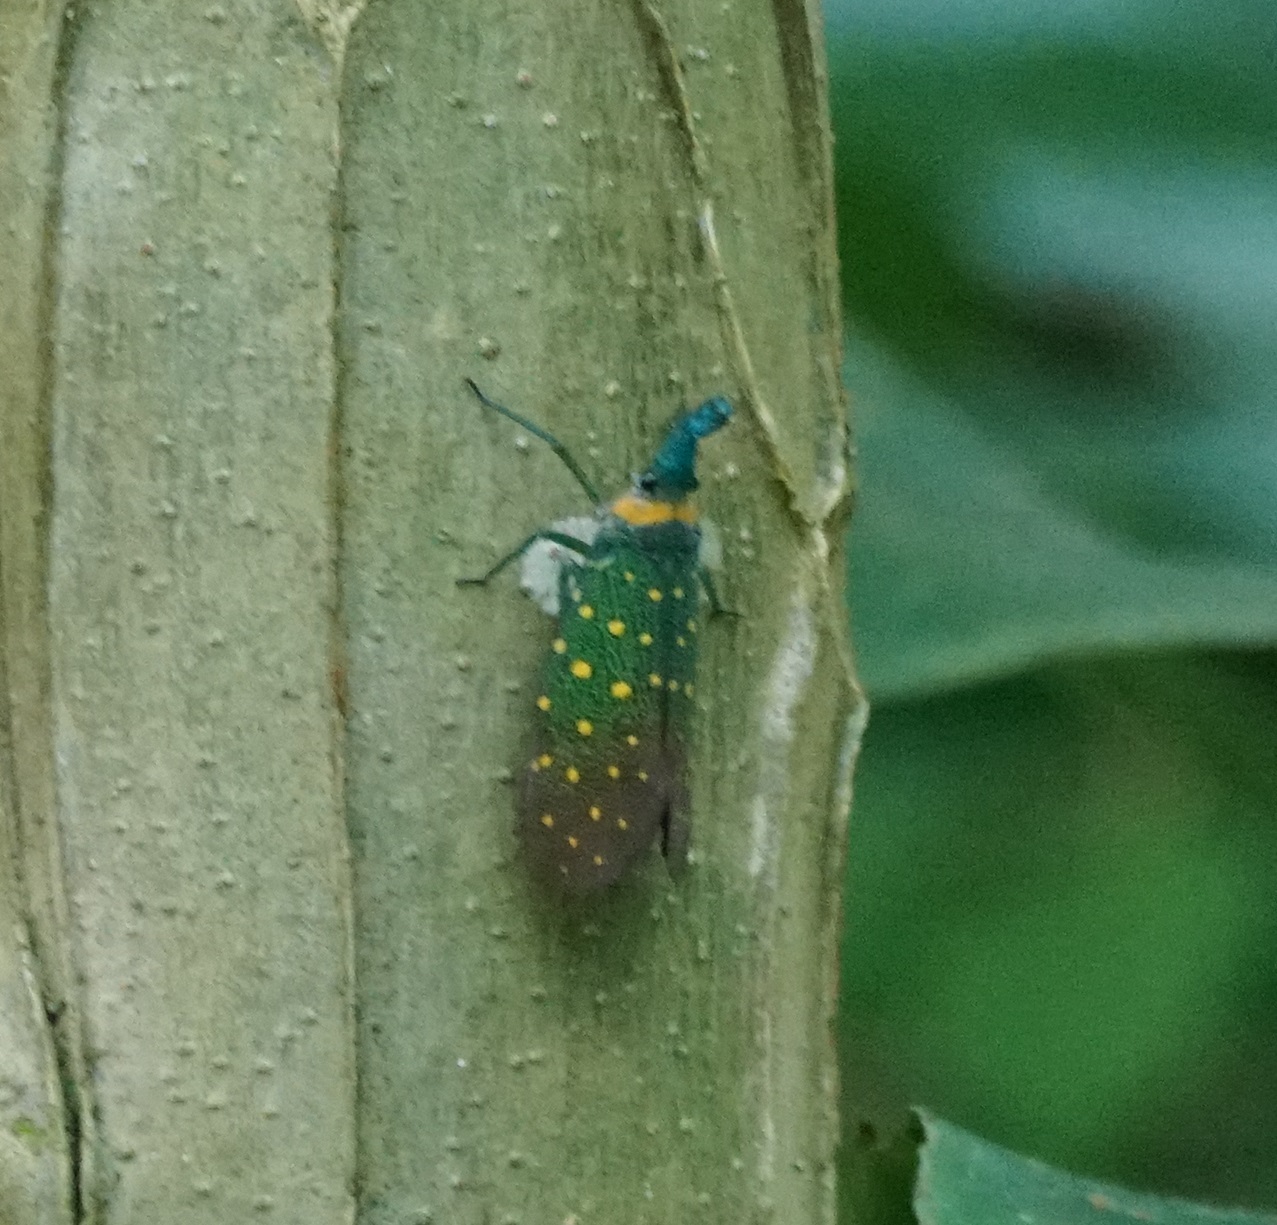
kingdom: Animalia
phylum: Arthropoda
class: Insecta
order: Hemiptera
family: Fulgoridae
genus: Pyrops
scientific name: Pyrops whiteheadi
